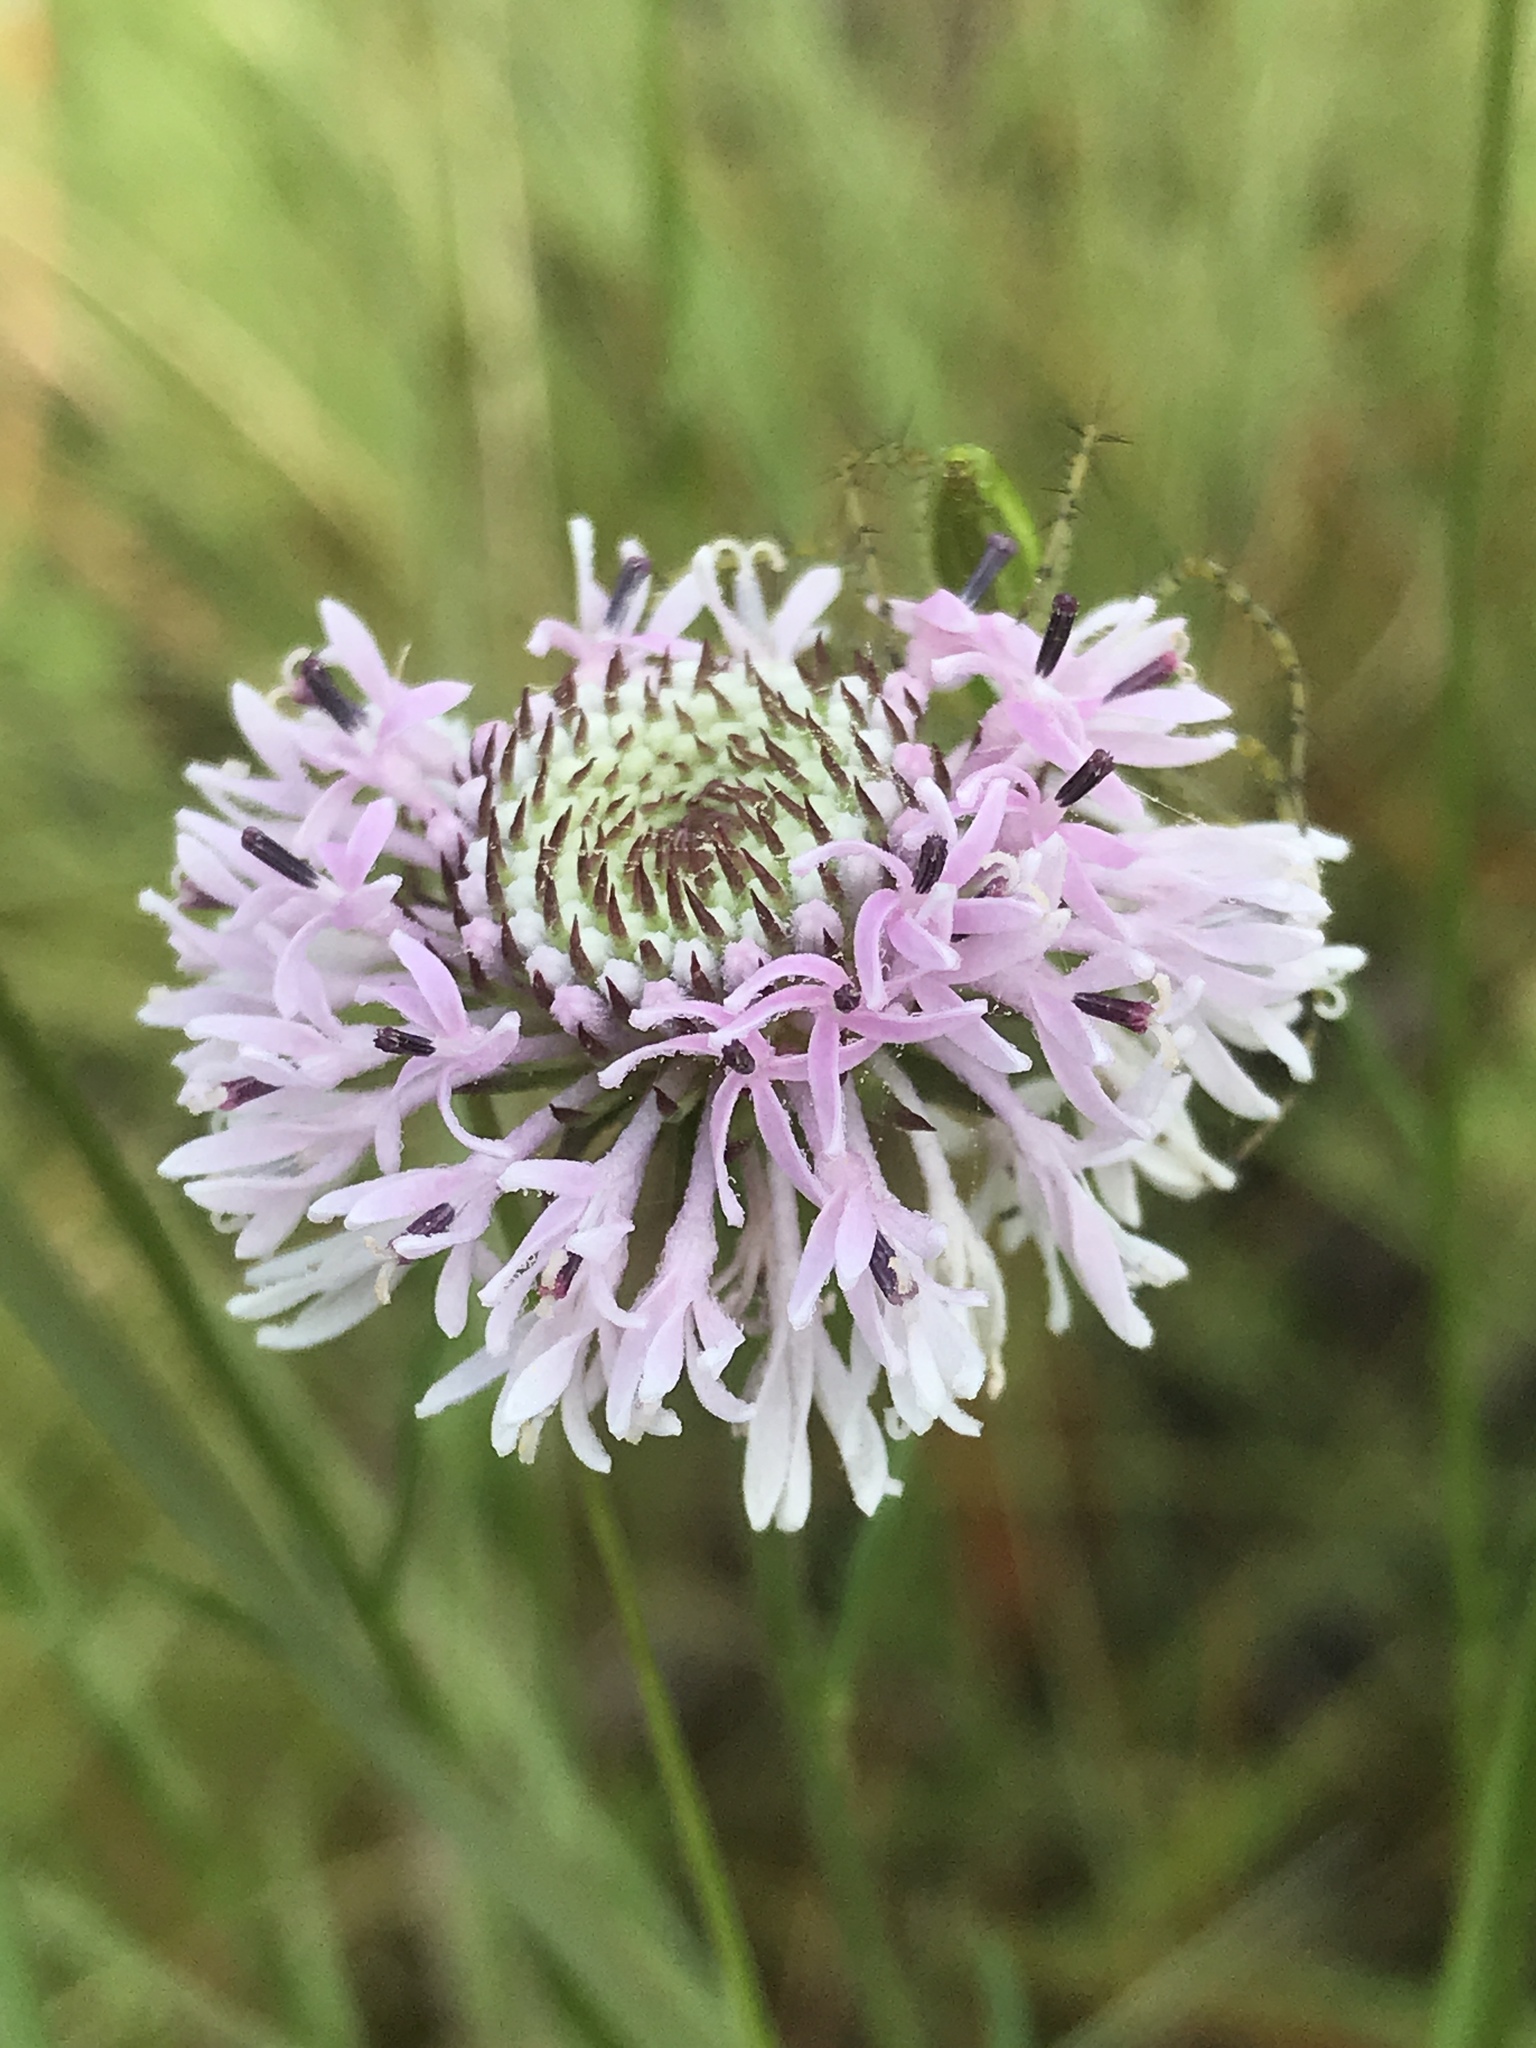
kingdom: Plantae
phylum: Tracheophyta
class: Magnoliopsida
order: Asterales
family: Asteraceae
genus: Marshallia
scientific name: Marshallia graminifolia
